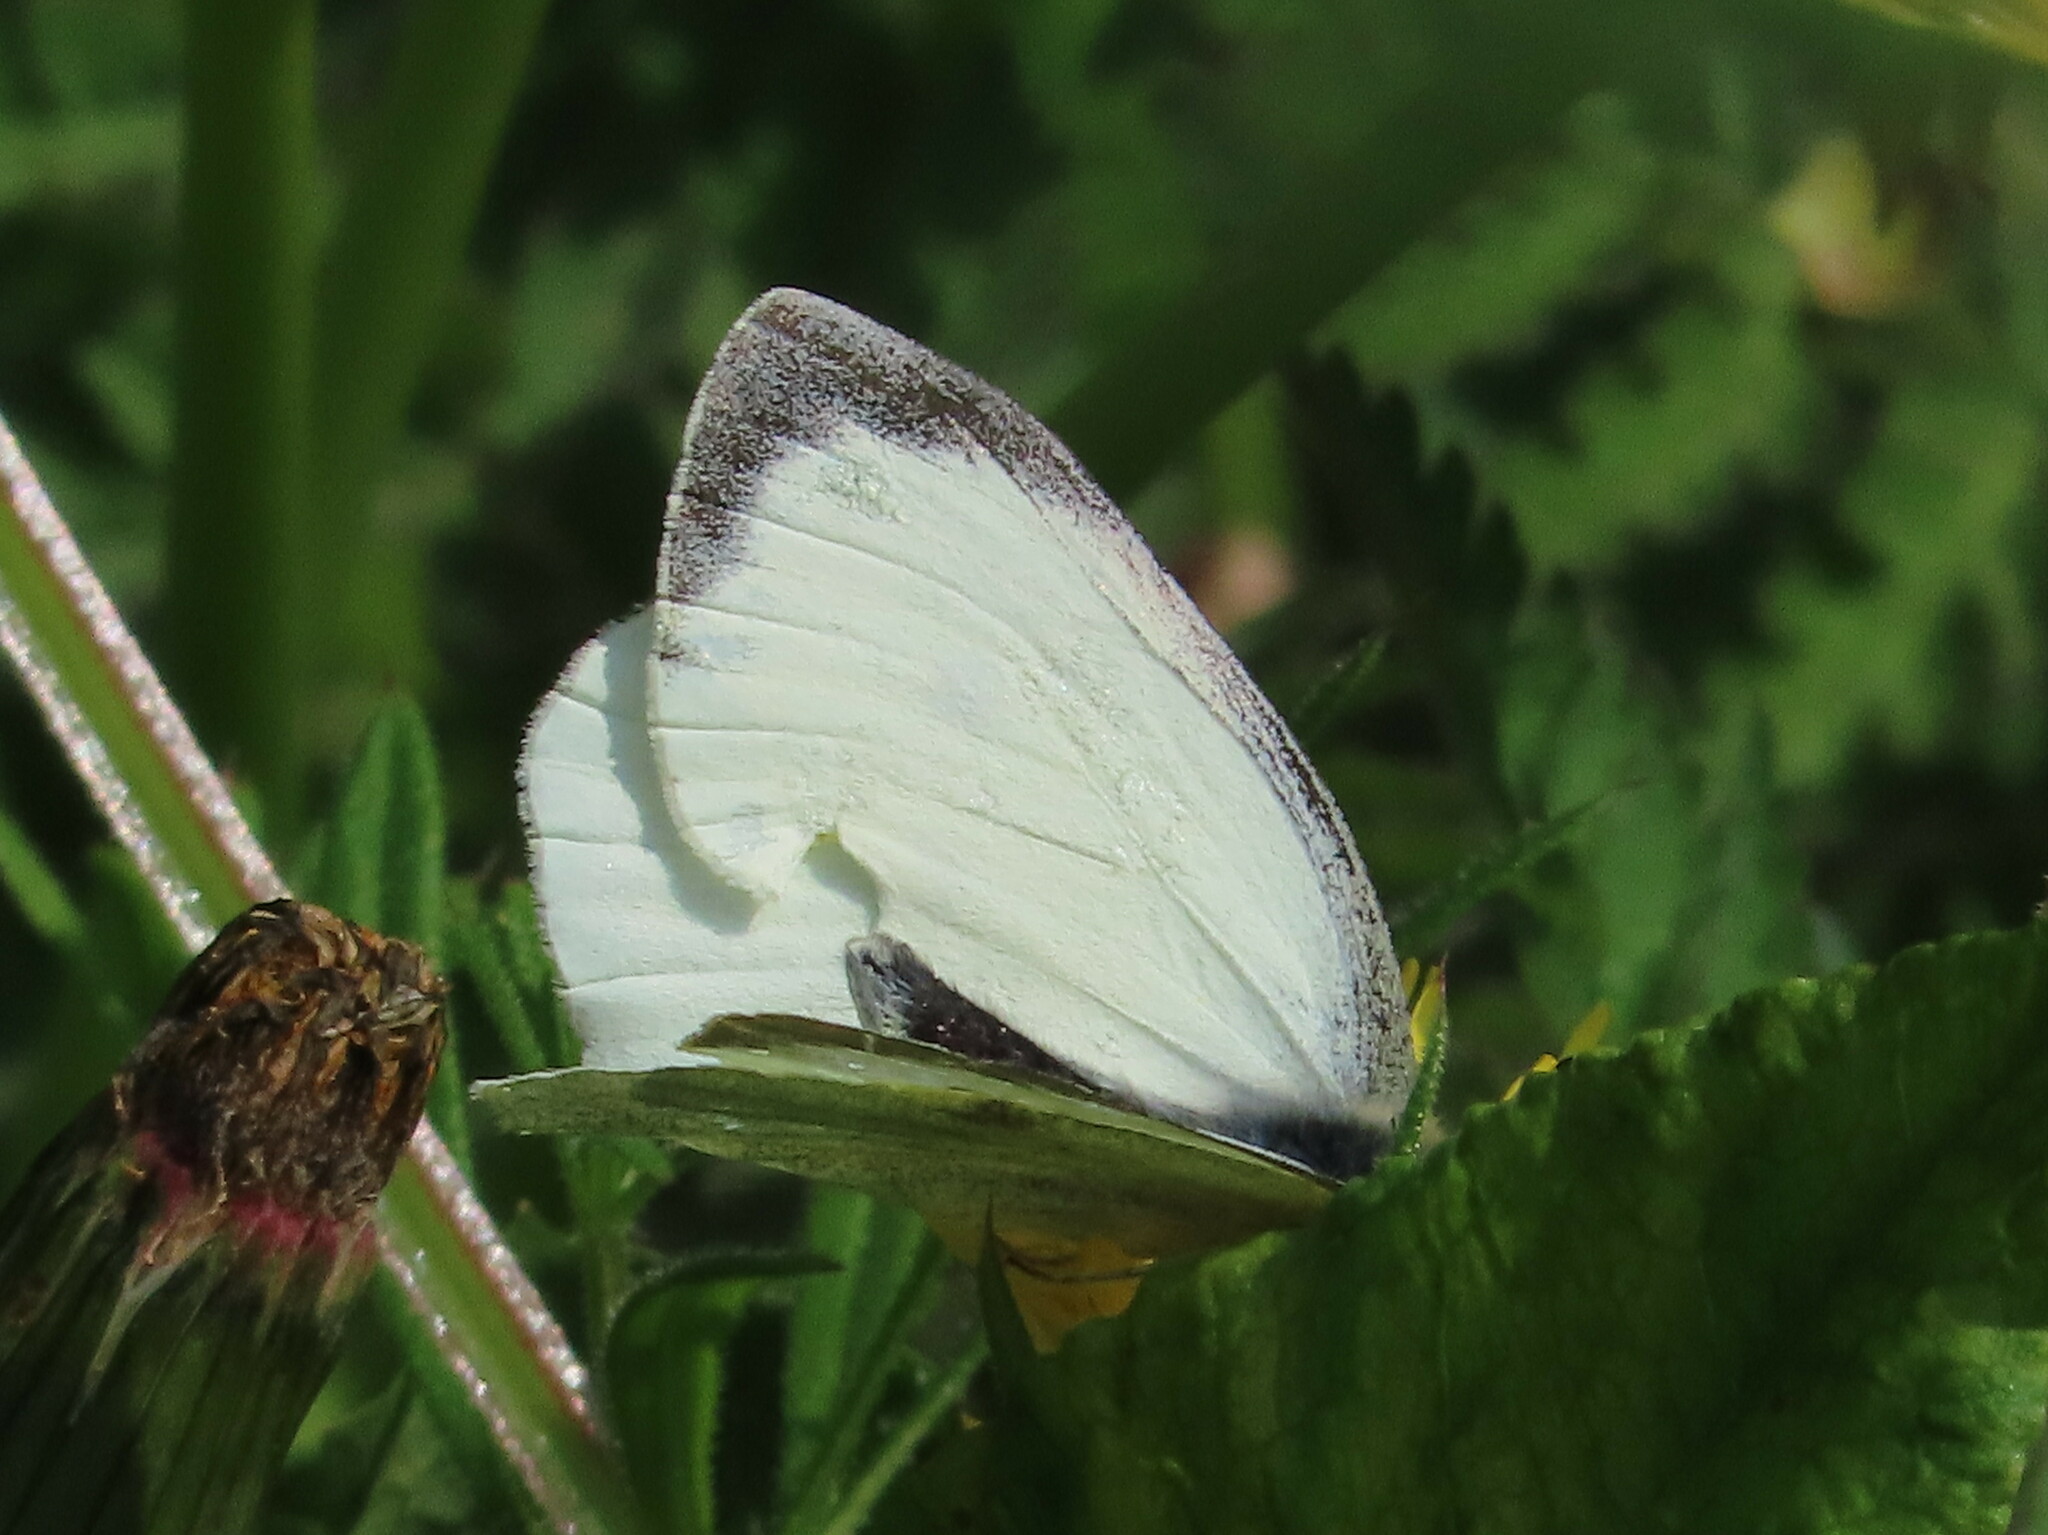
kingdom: Animalia
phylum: Arthropoda
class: Insecta
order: Lepidoptera
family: Pieridae
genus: Pieris
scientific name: Pieris brassicae
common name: Large white
